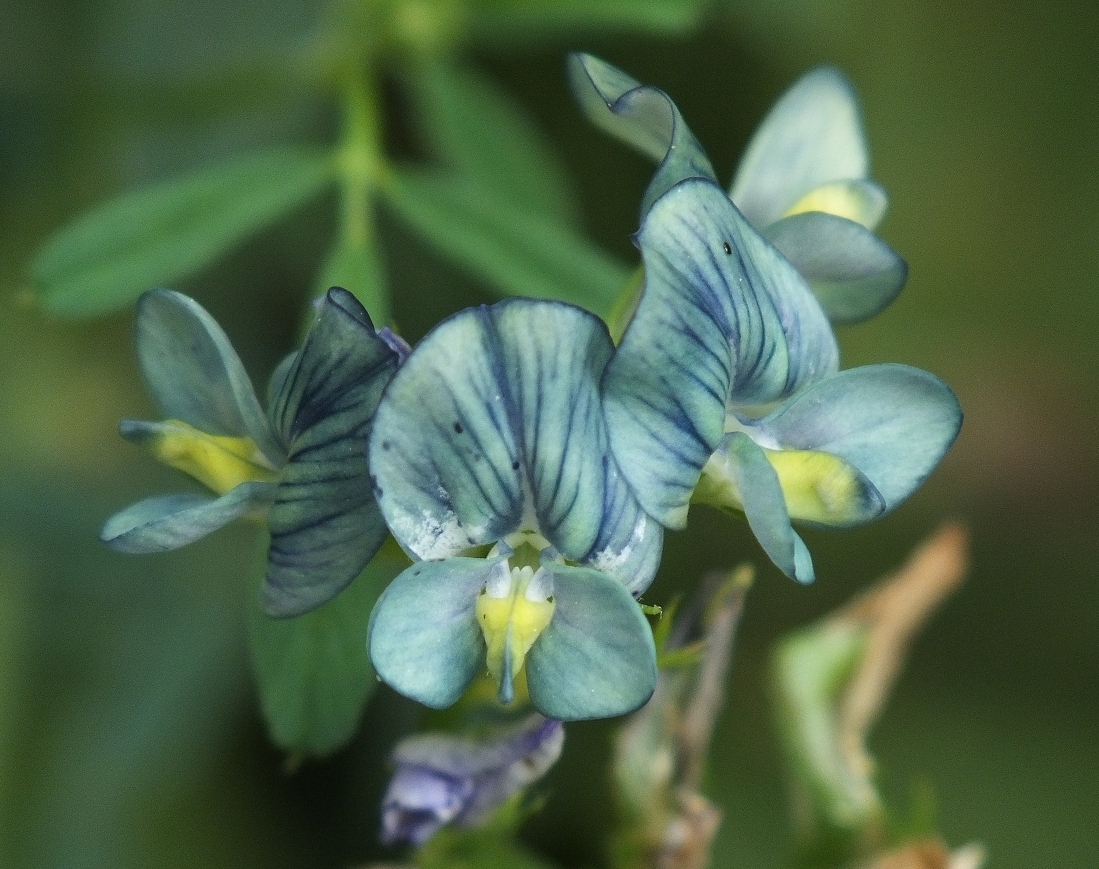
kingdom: Plantae
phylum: Tracheophyta
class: Magnoliopsida
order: Fabales
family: Fabaceae
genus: Medicago
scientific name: Medicago sativa
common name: Alfalfa
